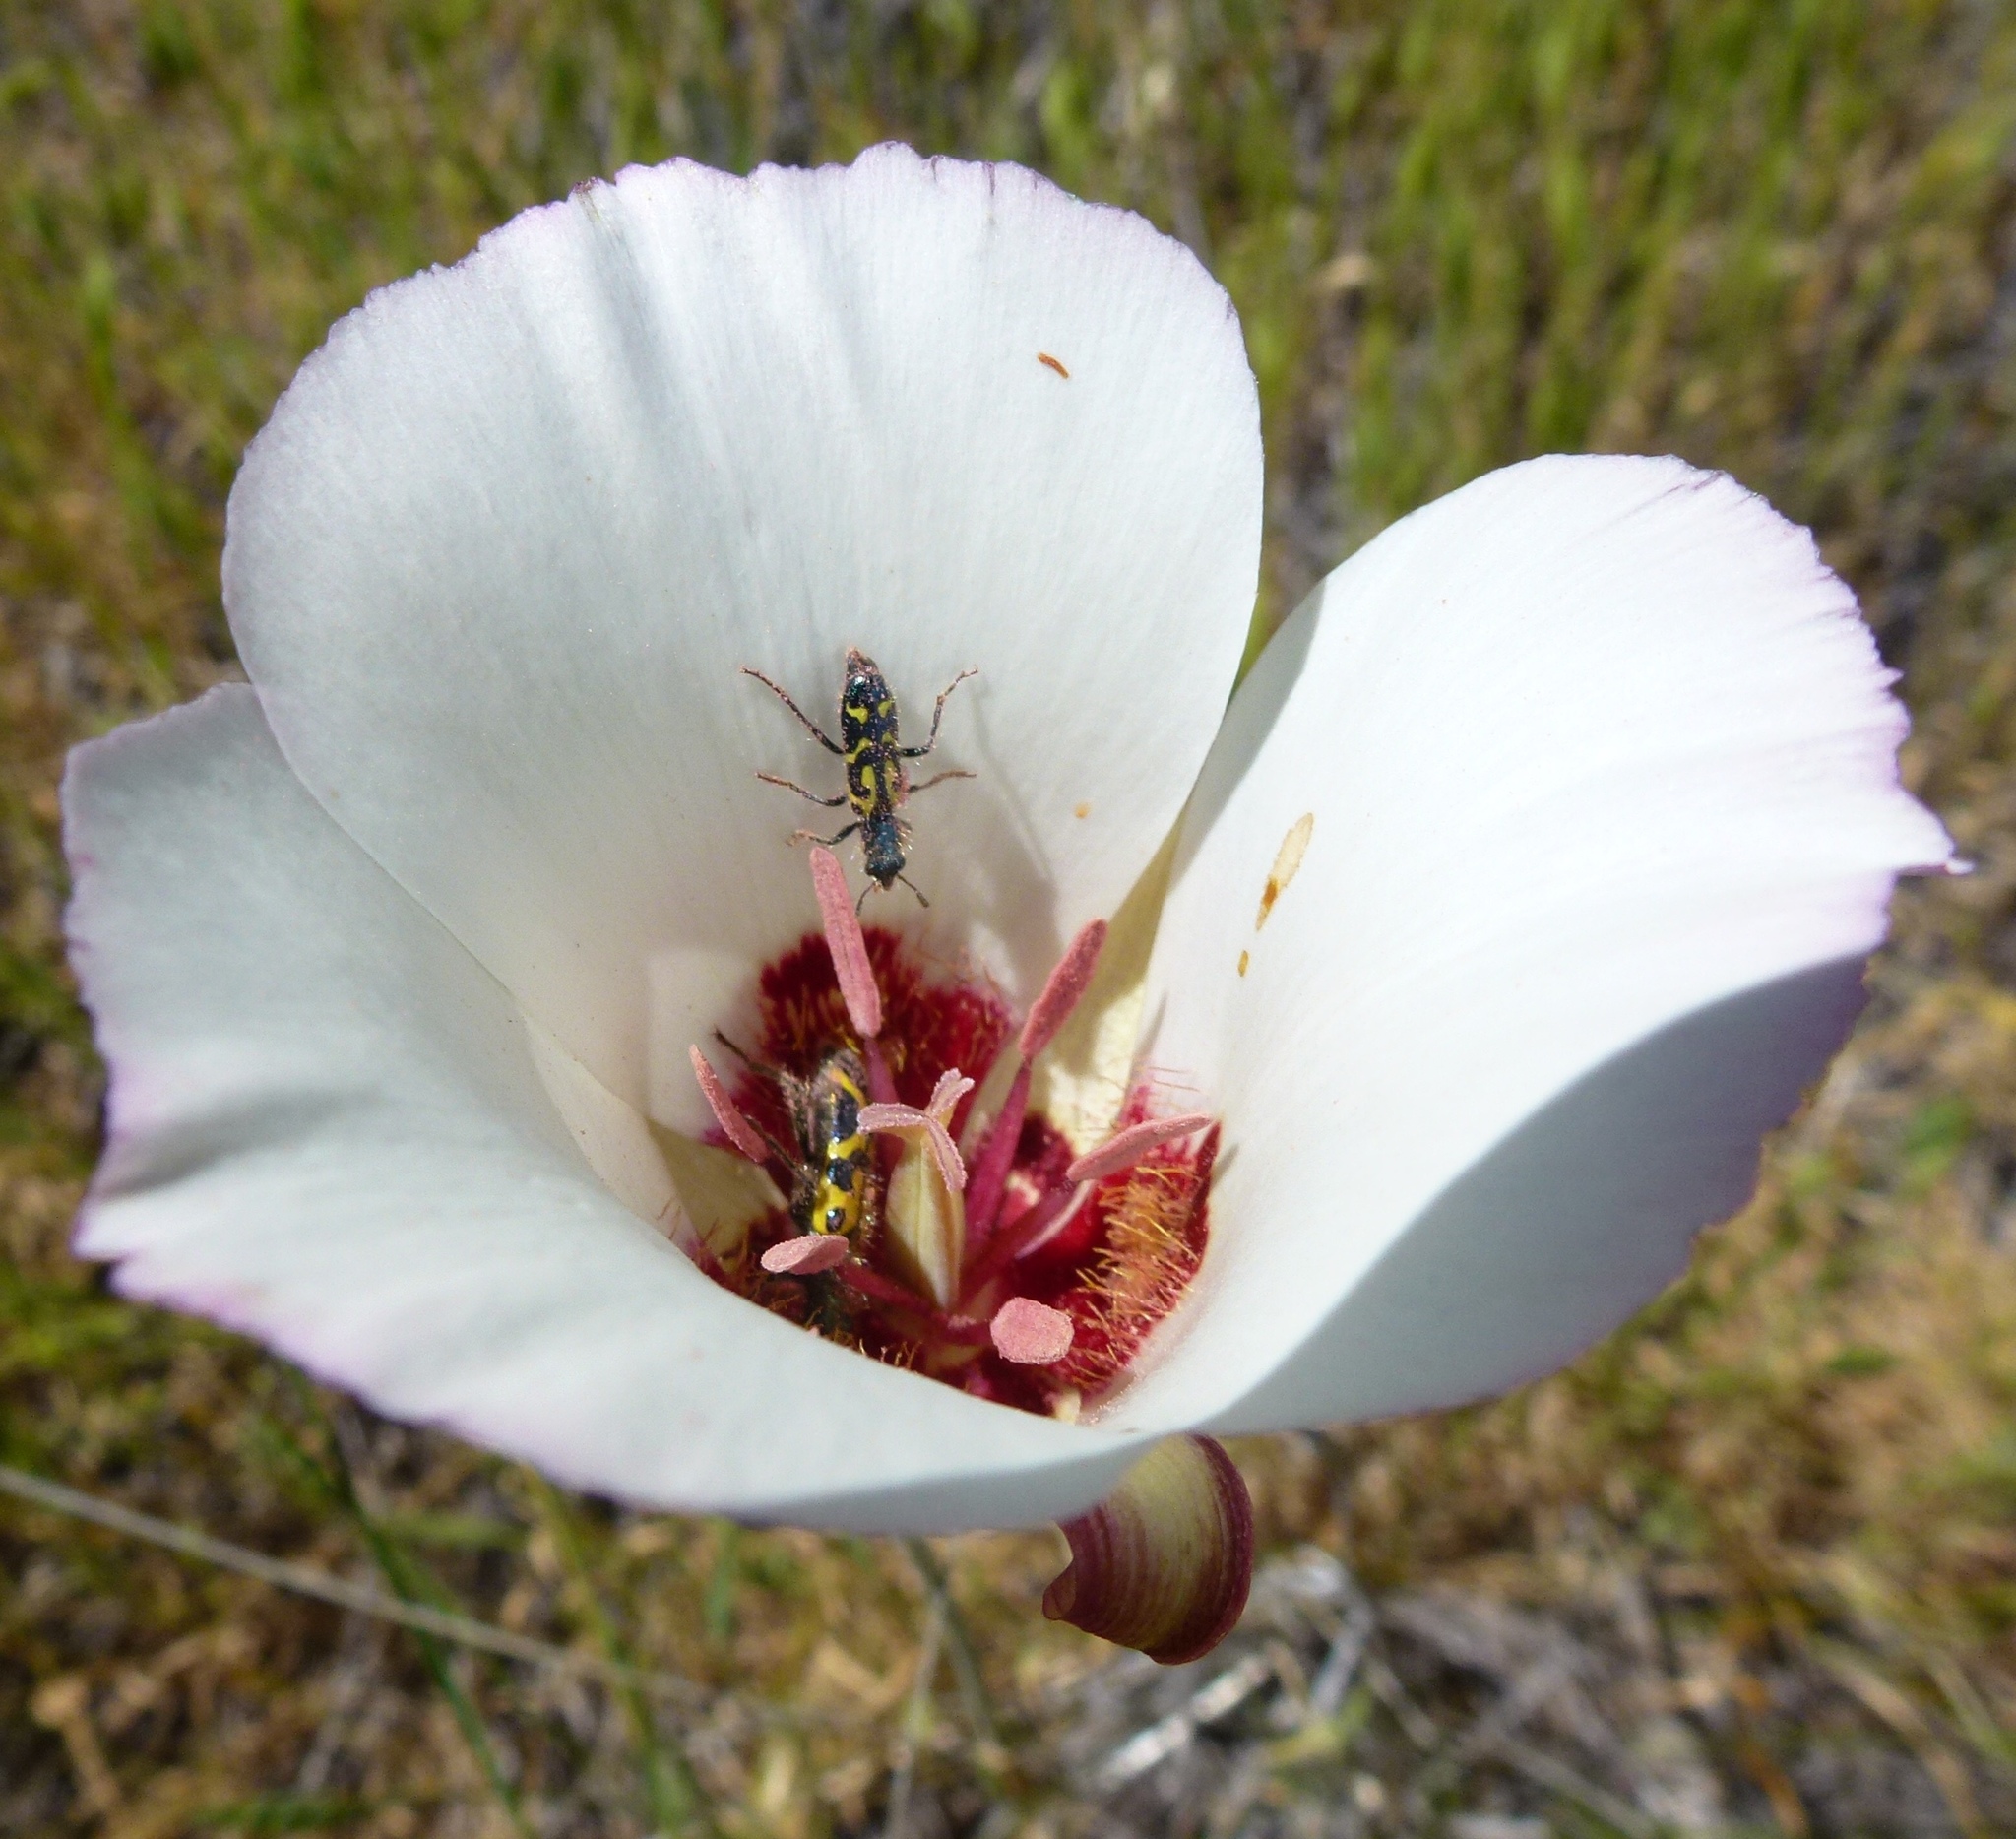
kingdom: Animalia
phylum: Arthropoda
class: Insecta
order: Coleoptera
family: Cleridae
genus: Trichodes
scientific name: Trichodes ornatus
